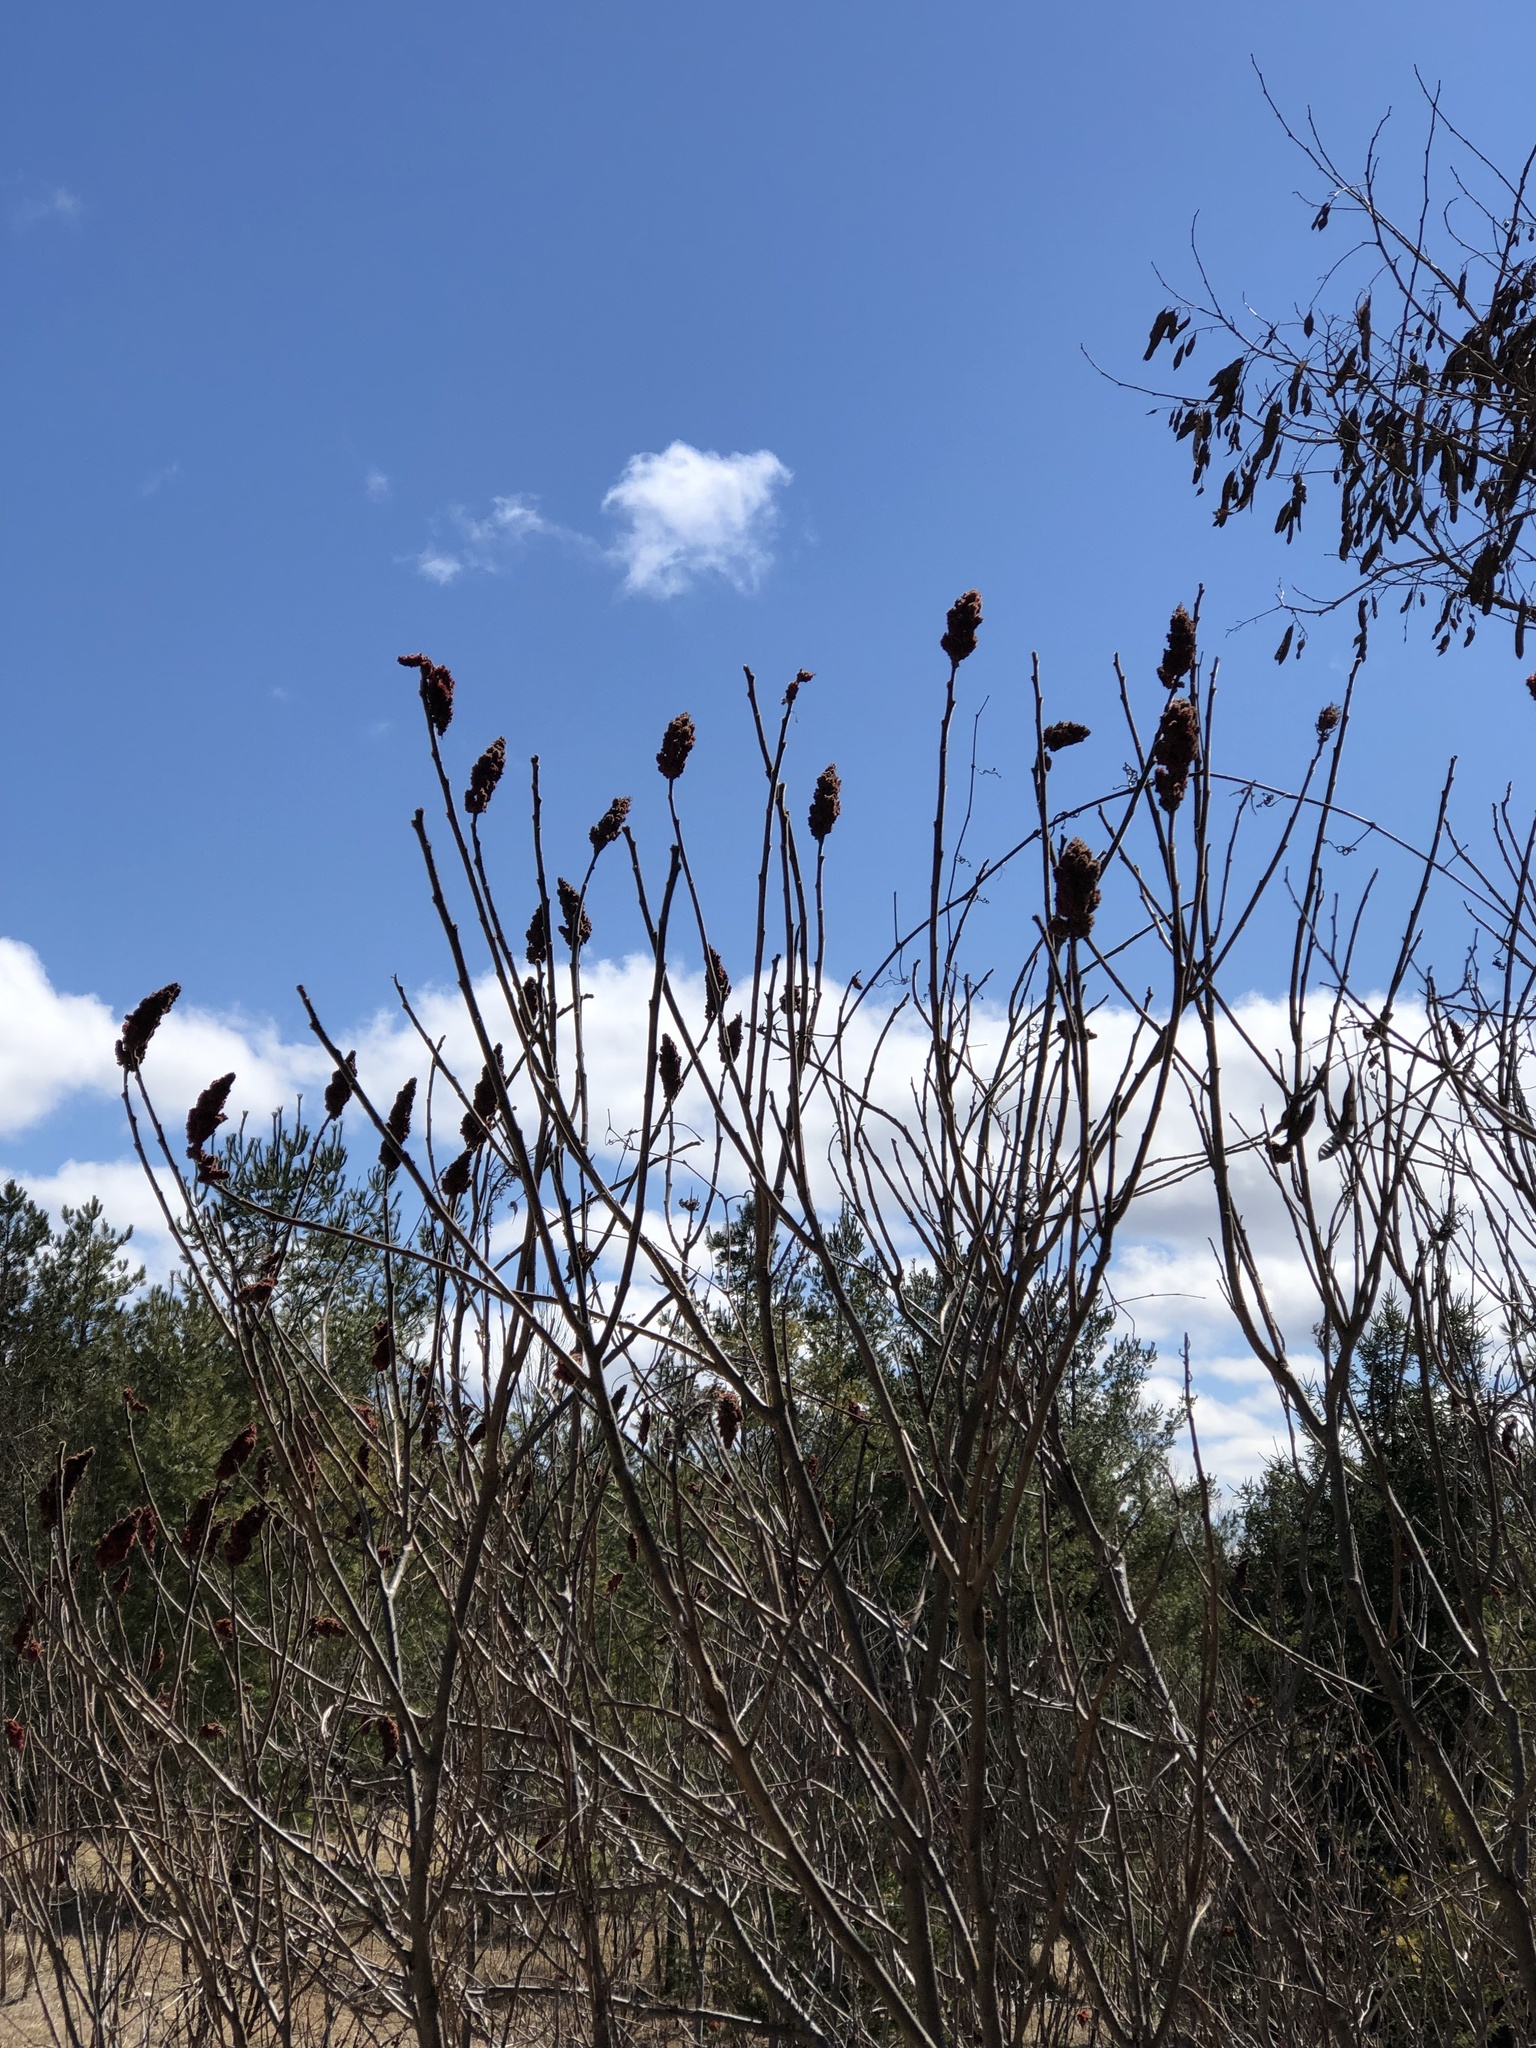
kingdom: Plantae
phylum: Tracheophyta
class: Magnoliopsida
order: Sapindales
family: Anacardiaceae
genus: Rhus
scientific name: Rhus typhina
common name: Staghorn sumac
